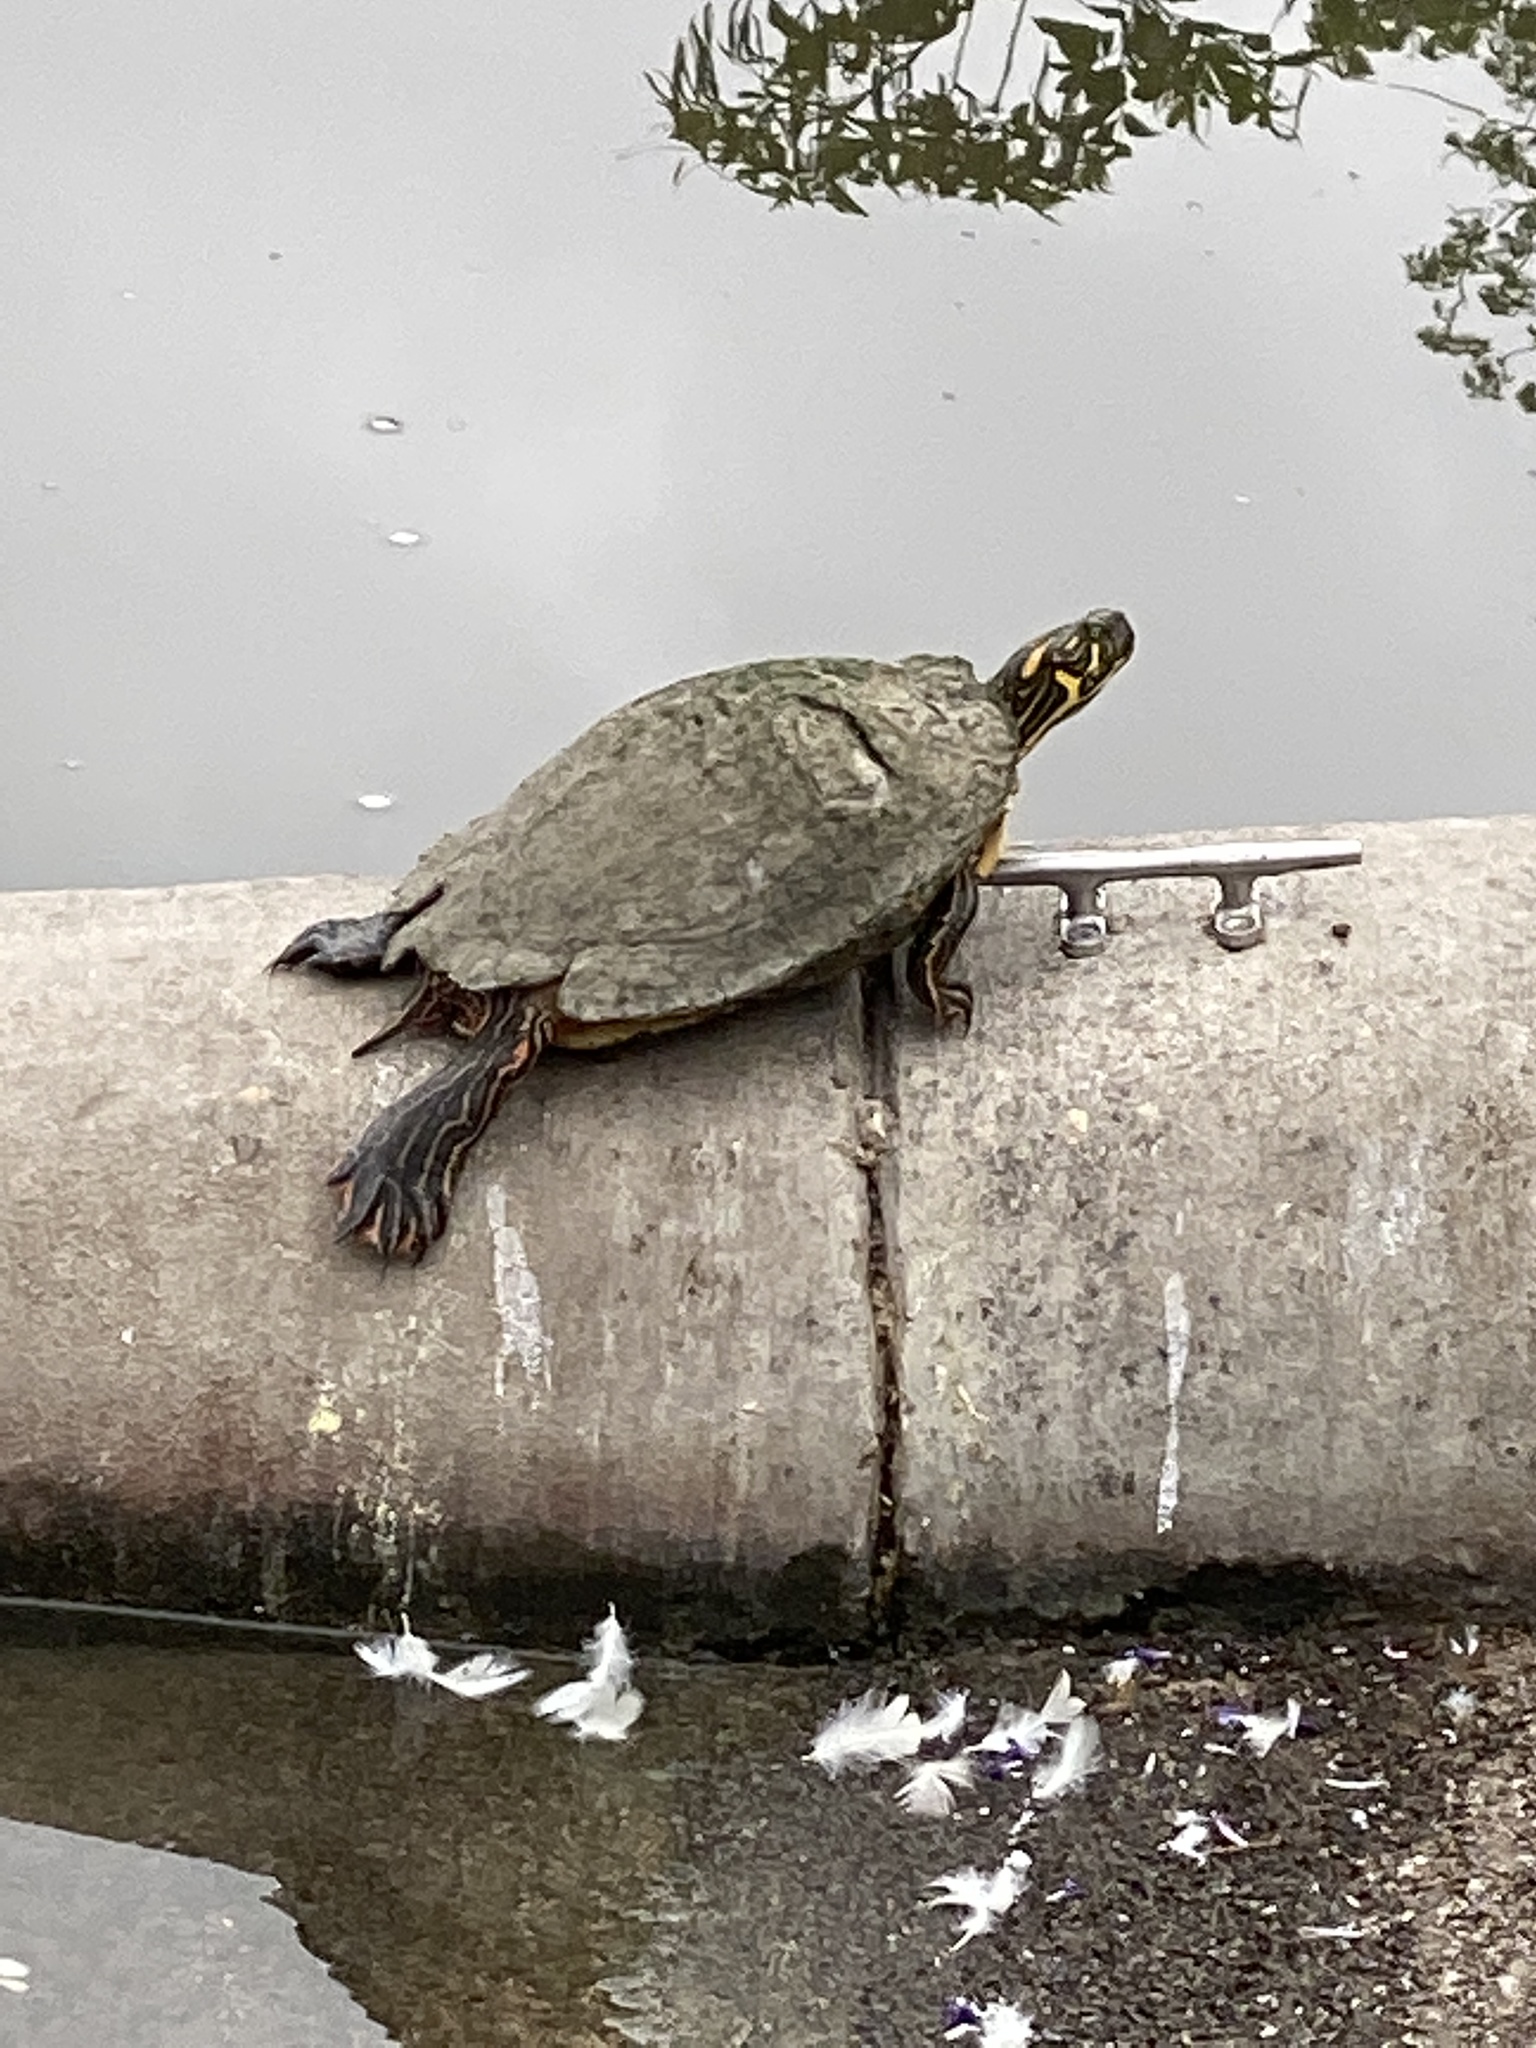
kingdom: Animalia
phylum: Chordata
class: Testudines
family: Emydidae
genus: Pseudemys
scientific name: Pseudemys texana
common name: Texas river cooter
